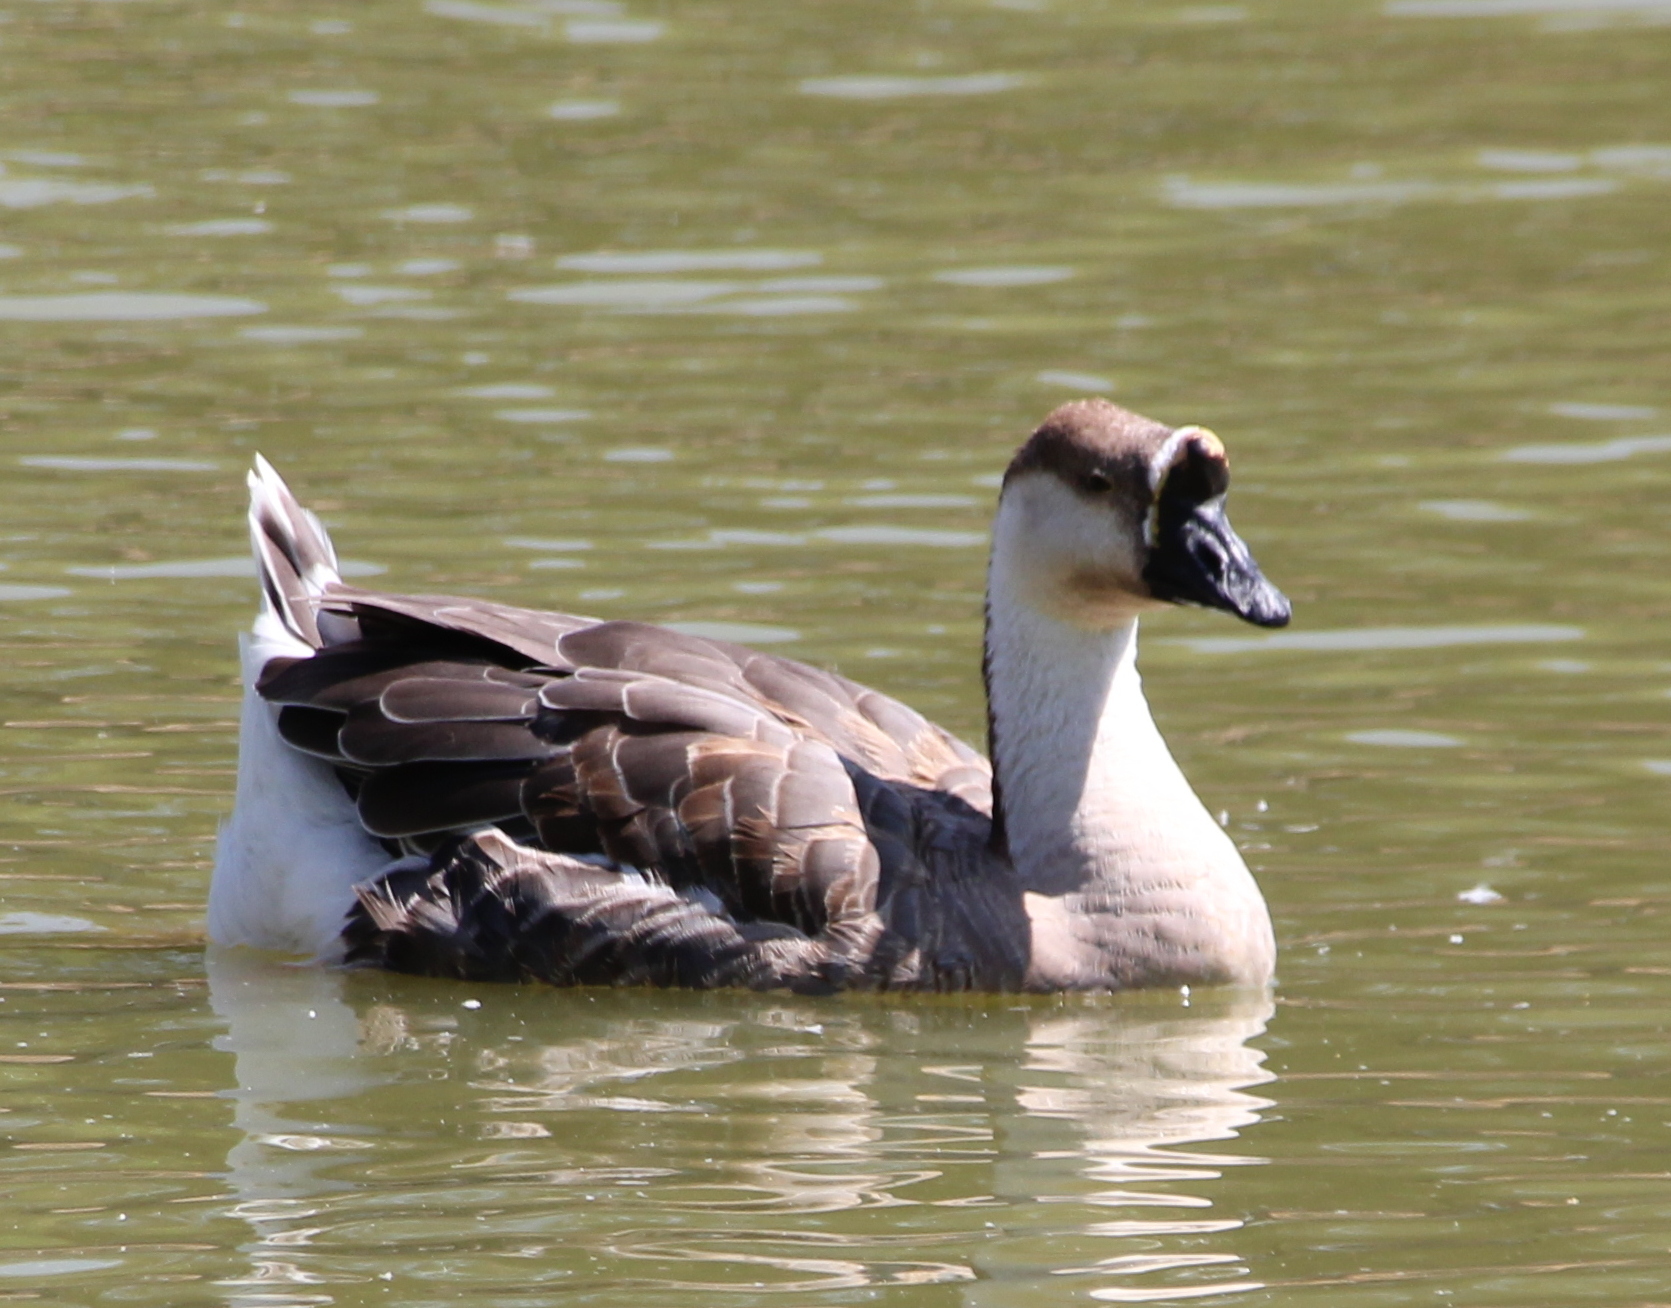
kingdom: Animalia
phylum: Chordata
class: Aves
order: Anseriformes
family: Anatidae
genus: Anser
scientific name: Anser cygnoides
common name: Swan goose
